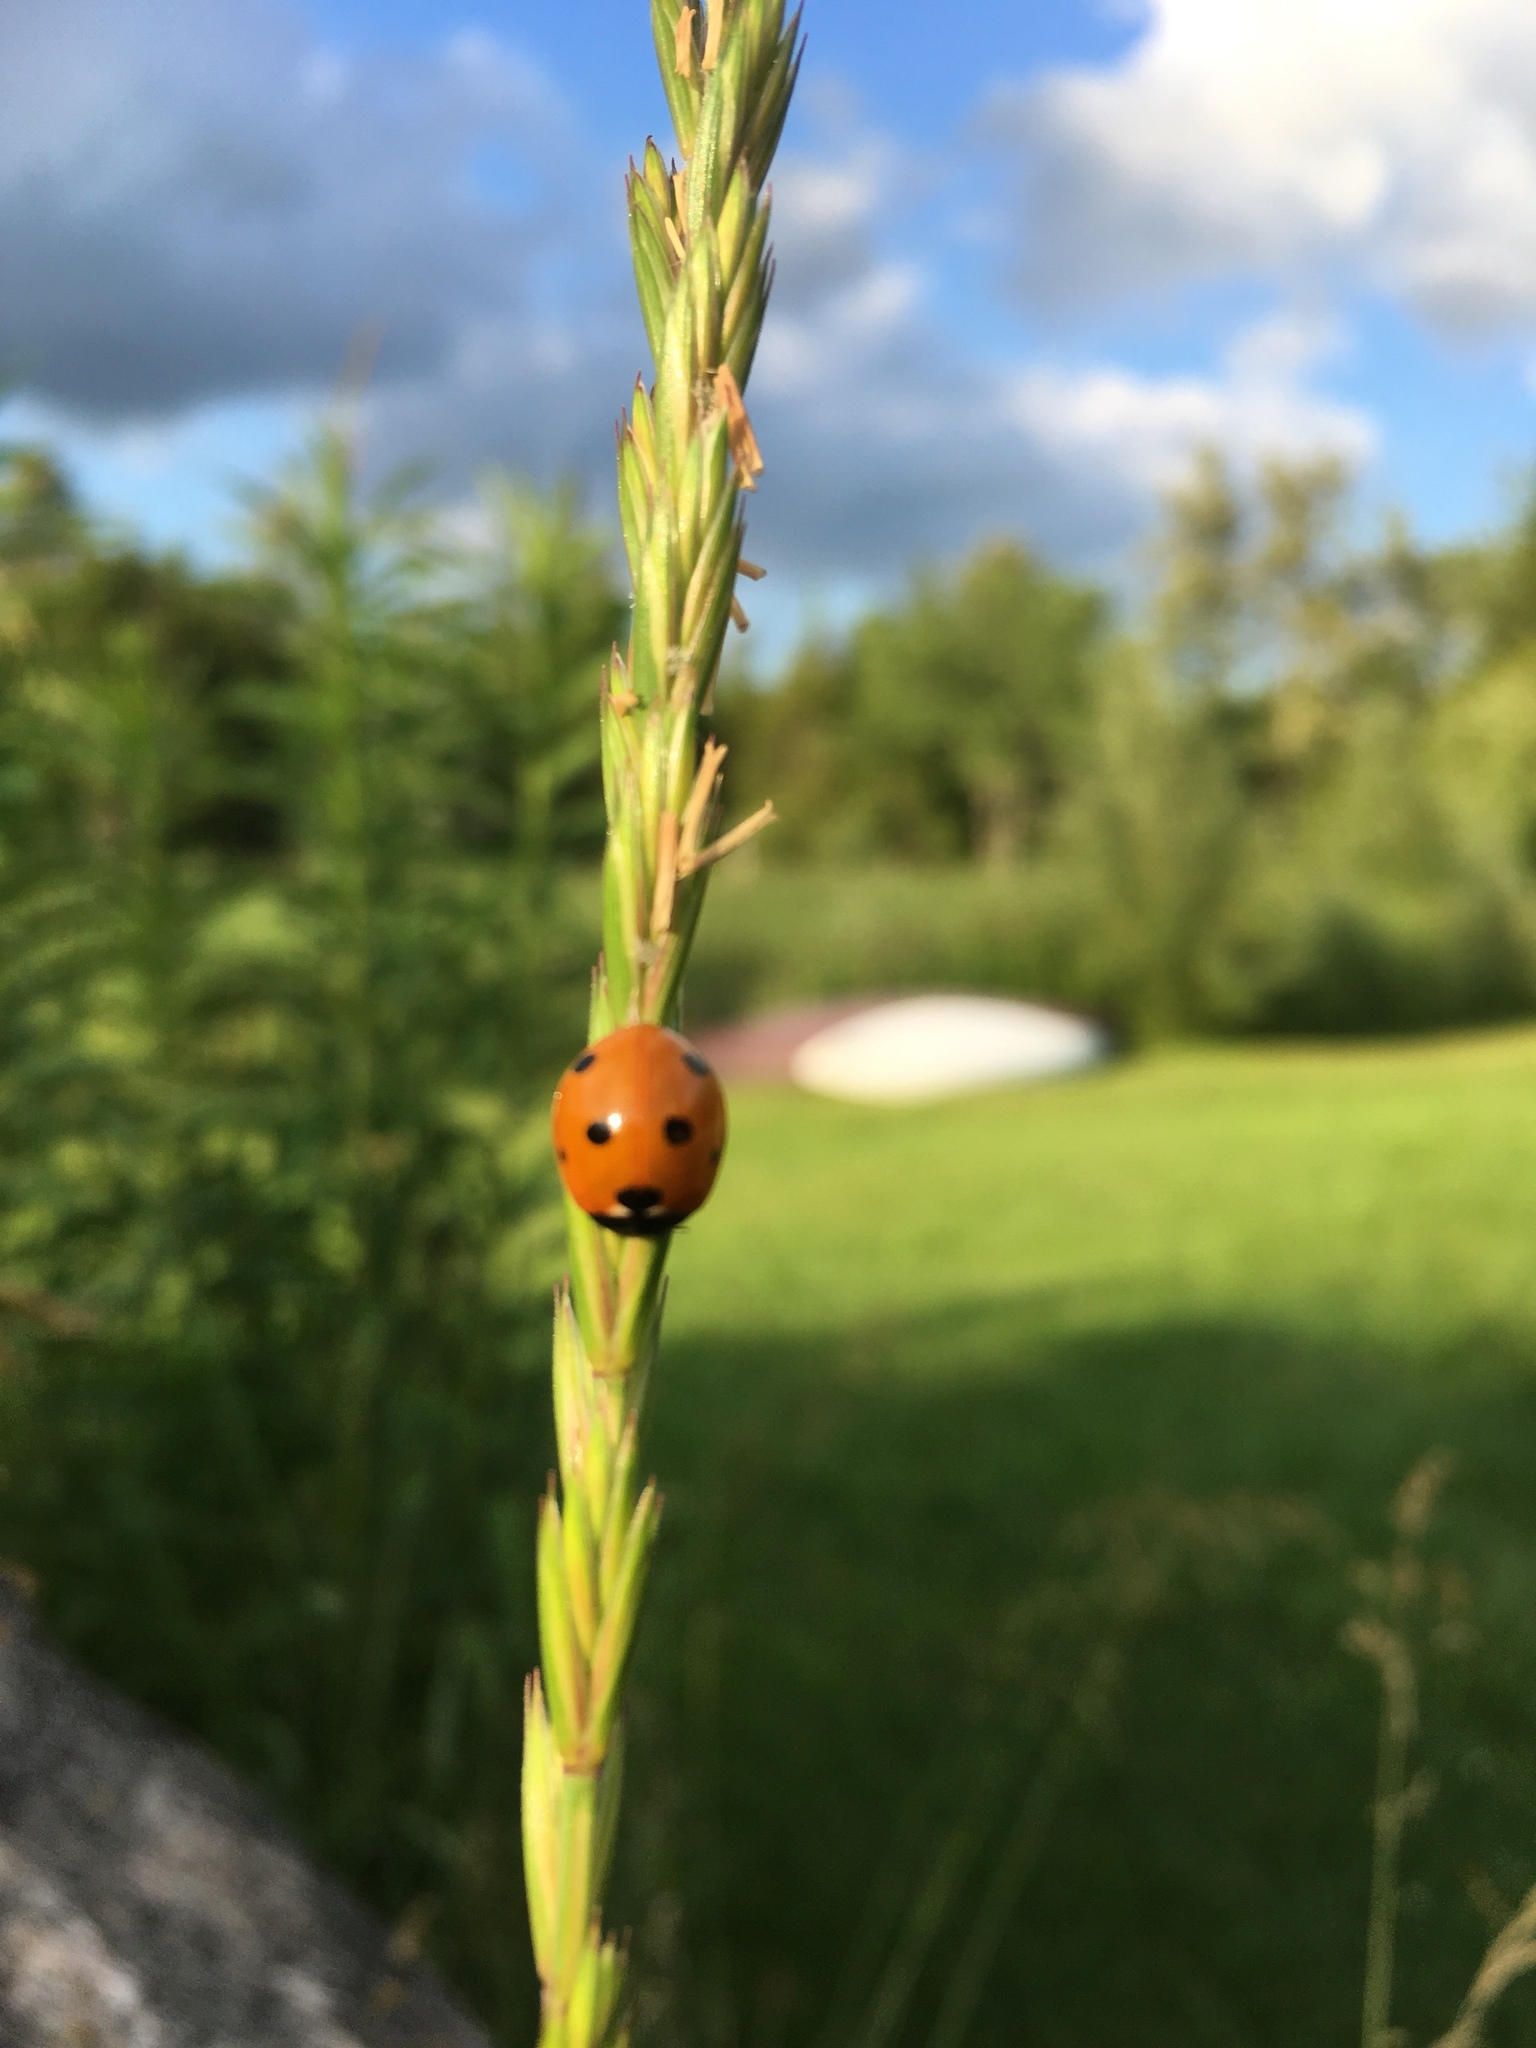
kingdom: Animalia
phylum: Arthropoda
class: Insecta
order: Coleoptera
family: Coccinellidae
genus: Coccinella
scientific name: Coccinella septempunctata
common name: Sevenspotted lady beetle
